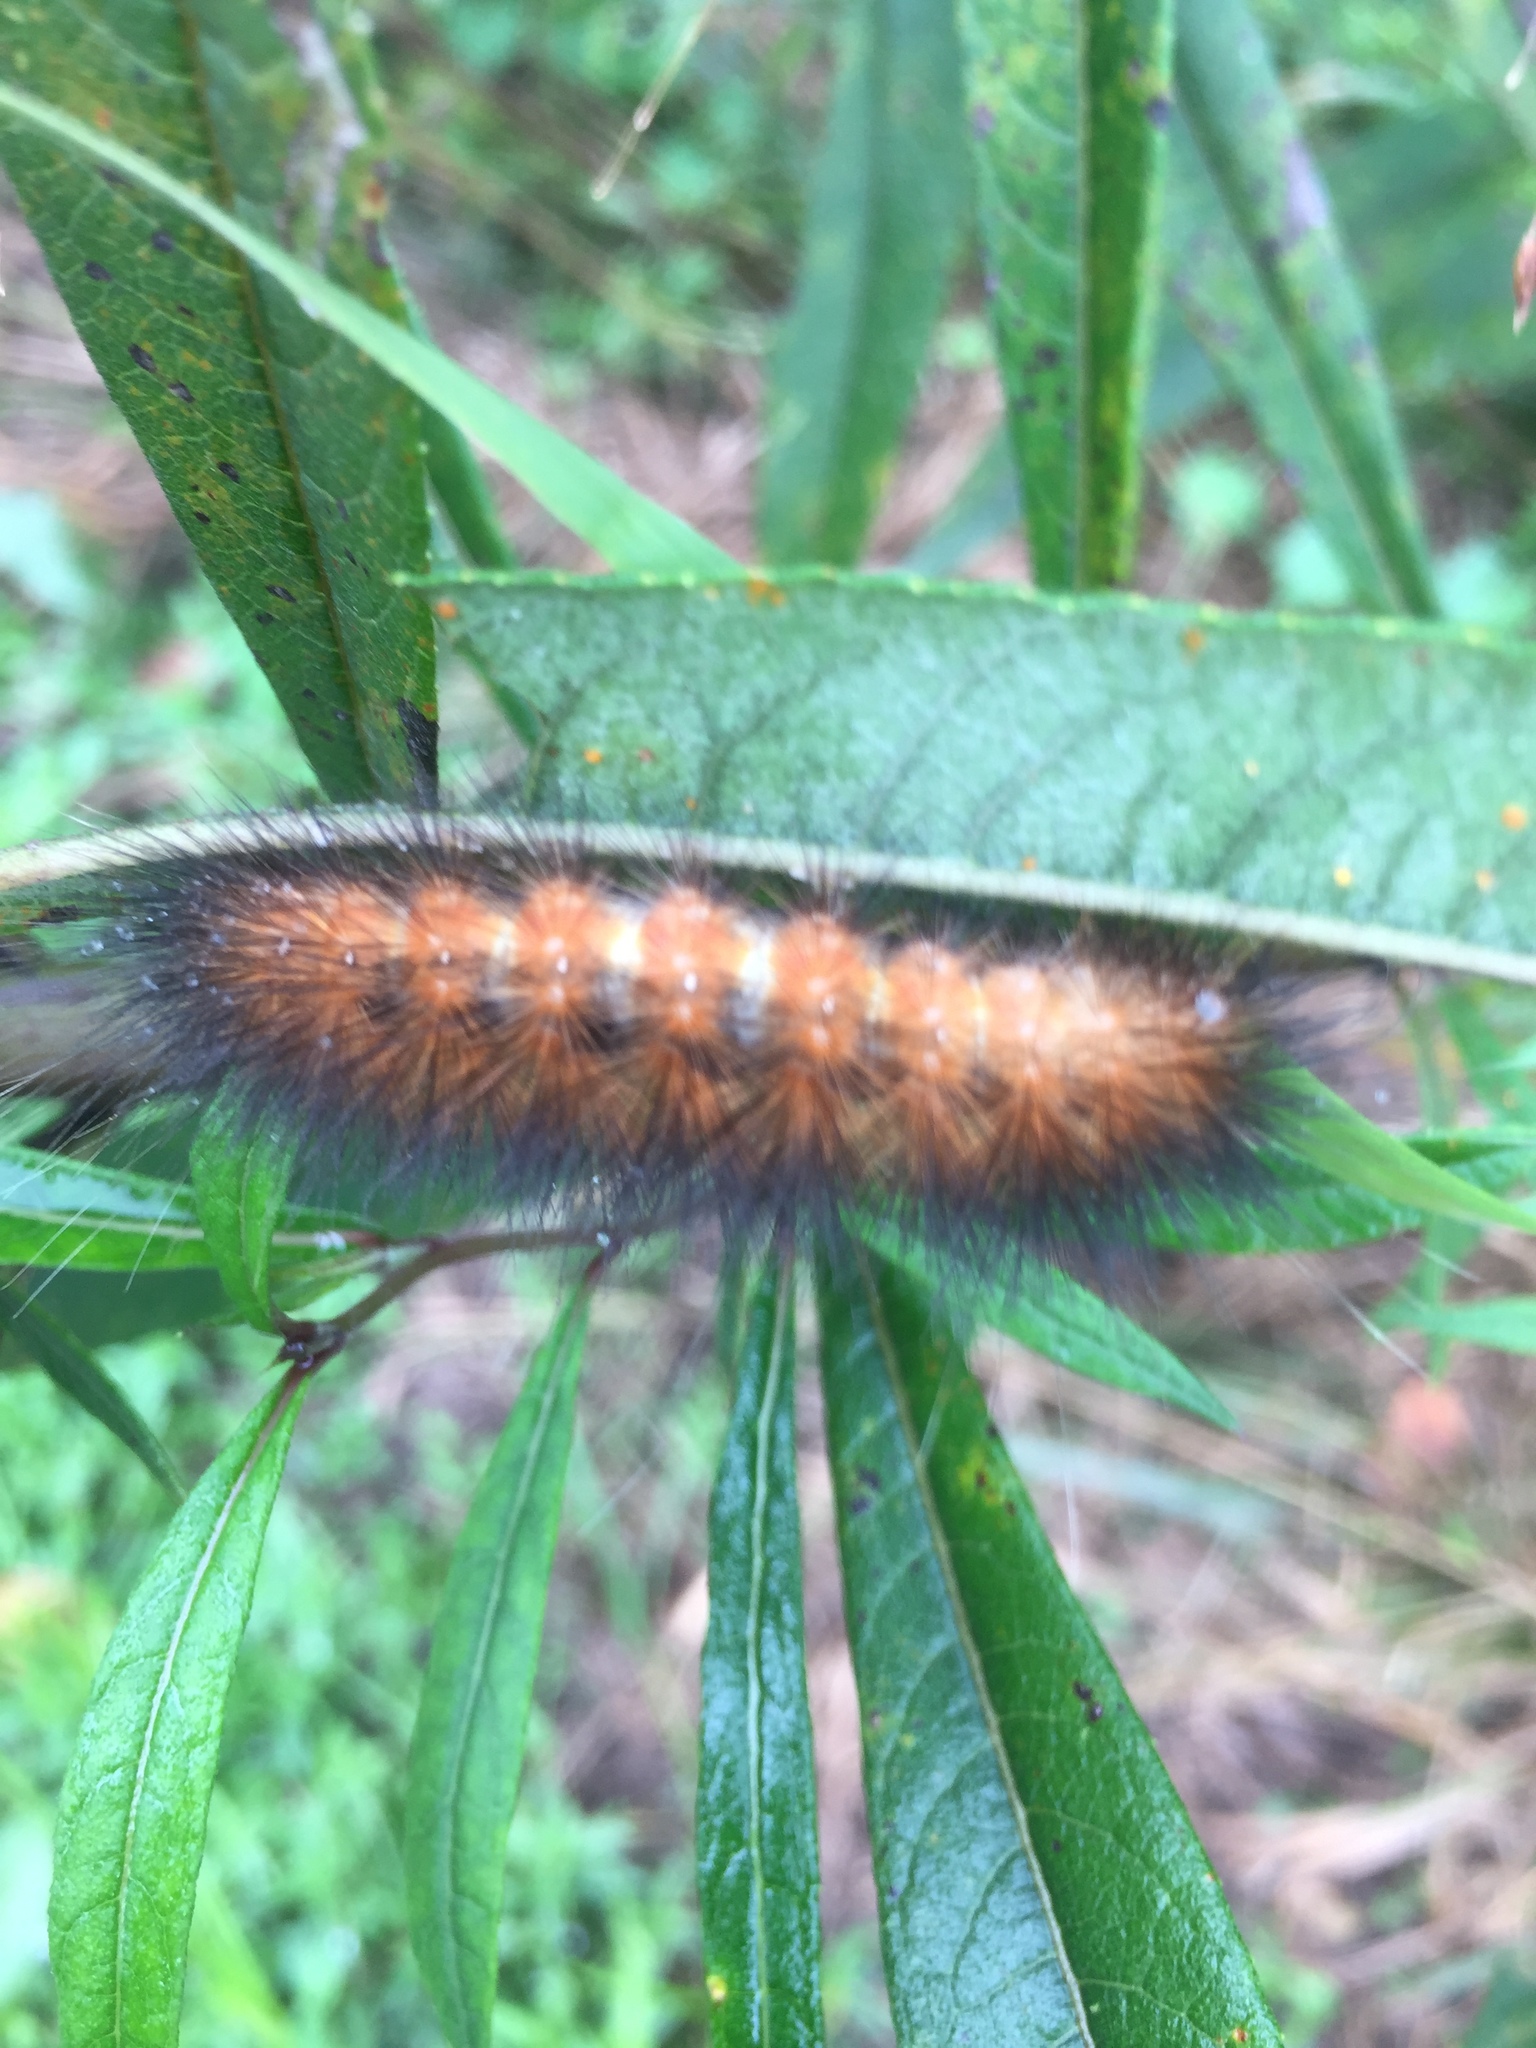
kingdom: Animalia
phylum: Arthropoda
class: Insecta
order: Lepidoptera
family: Erebidae
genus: Spilosoma
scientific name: Spilosoma virginica
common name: Virginia tiger moth
